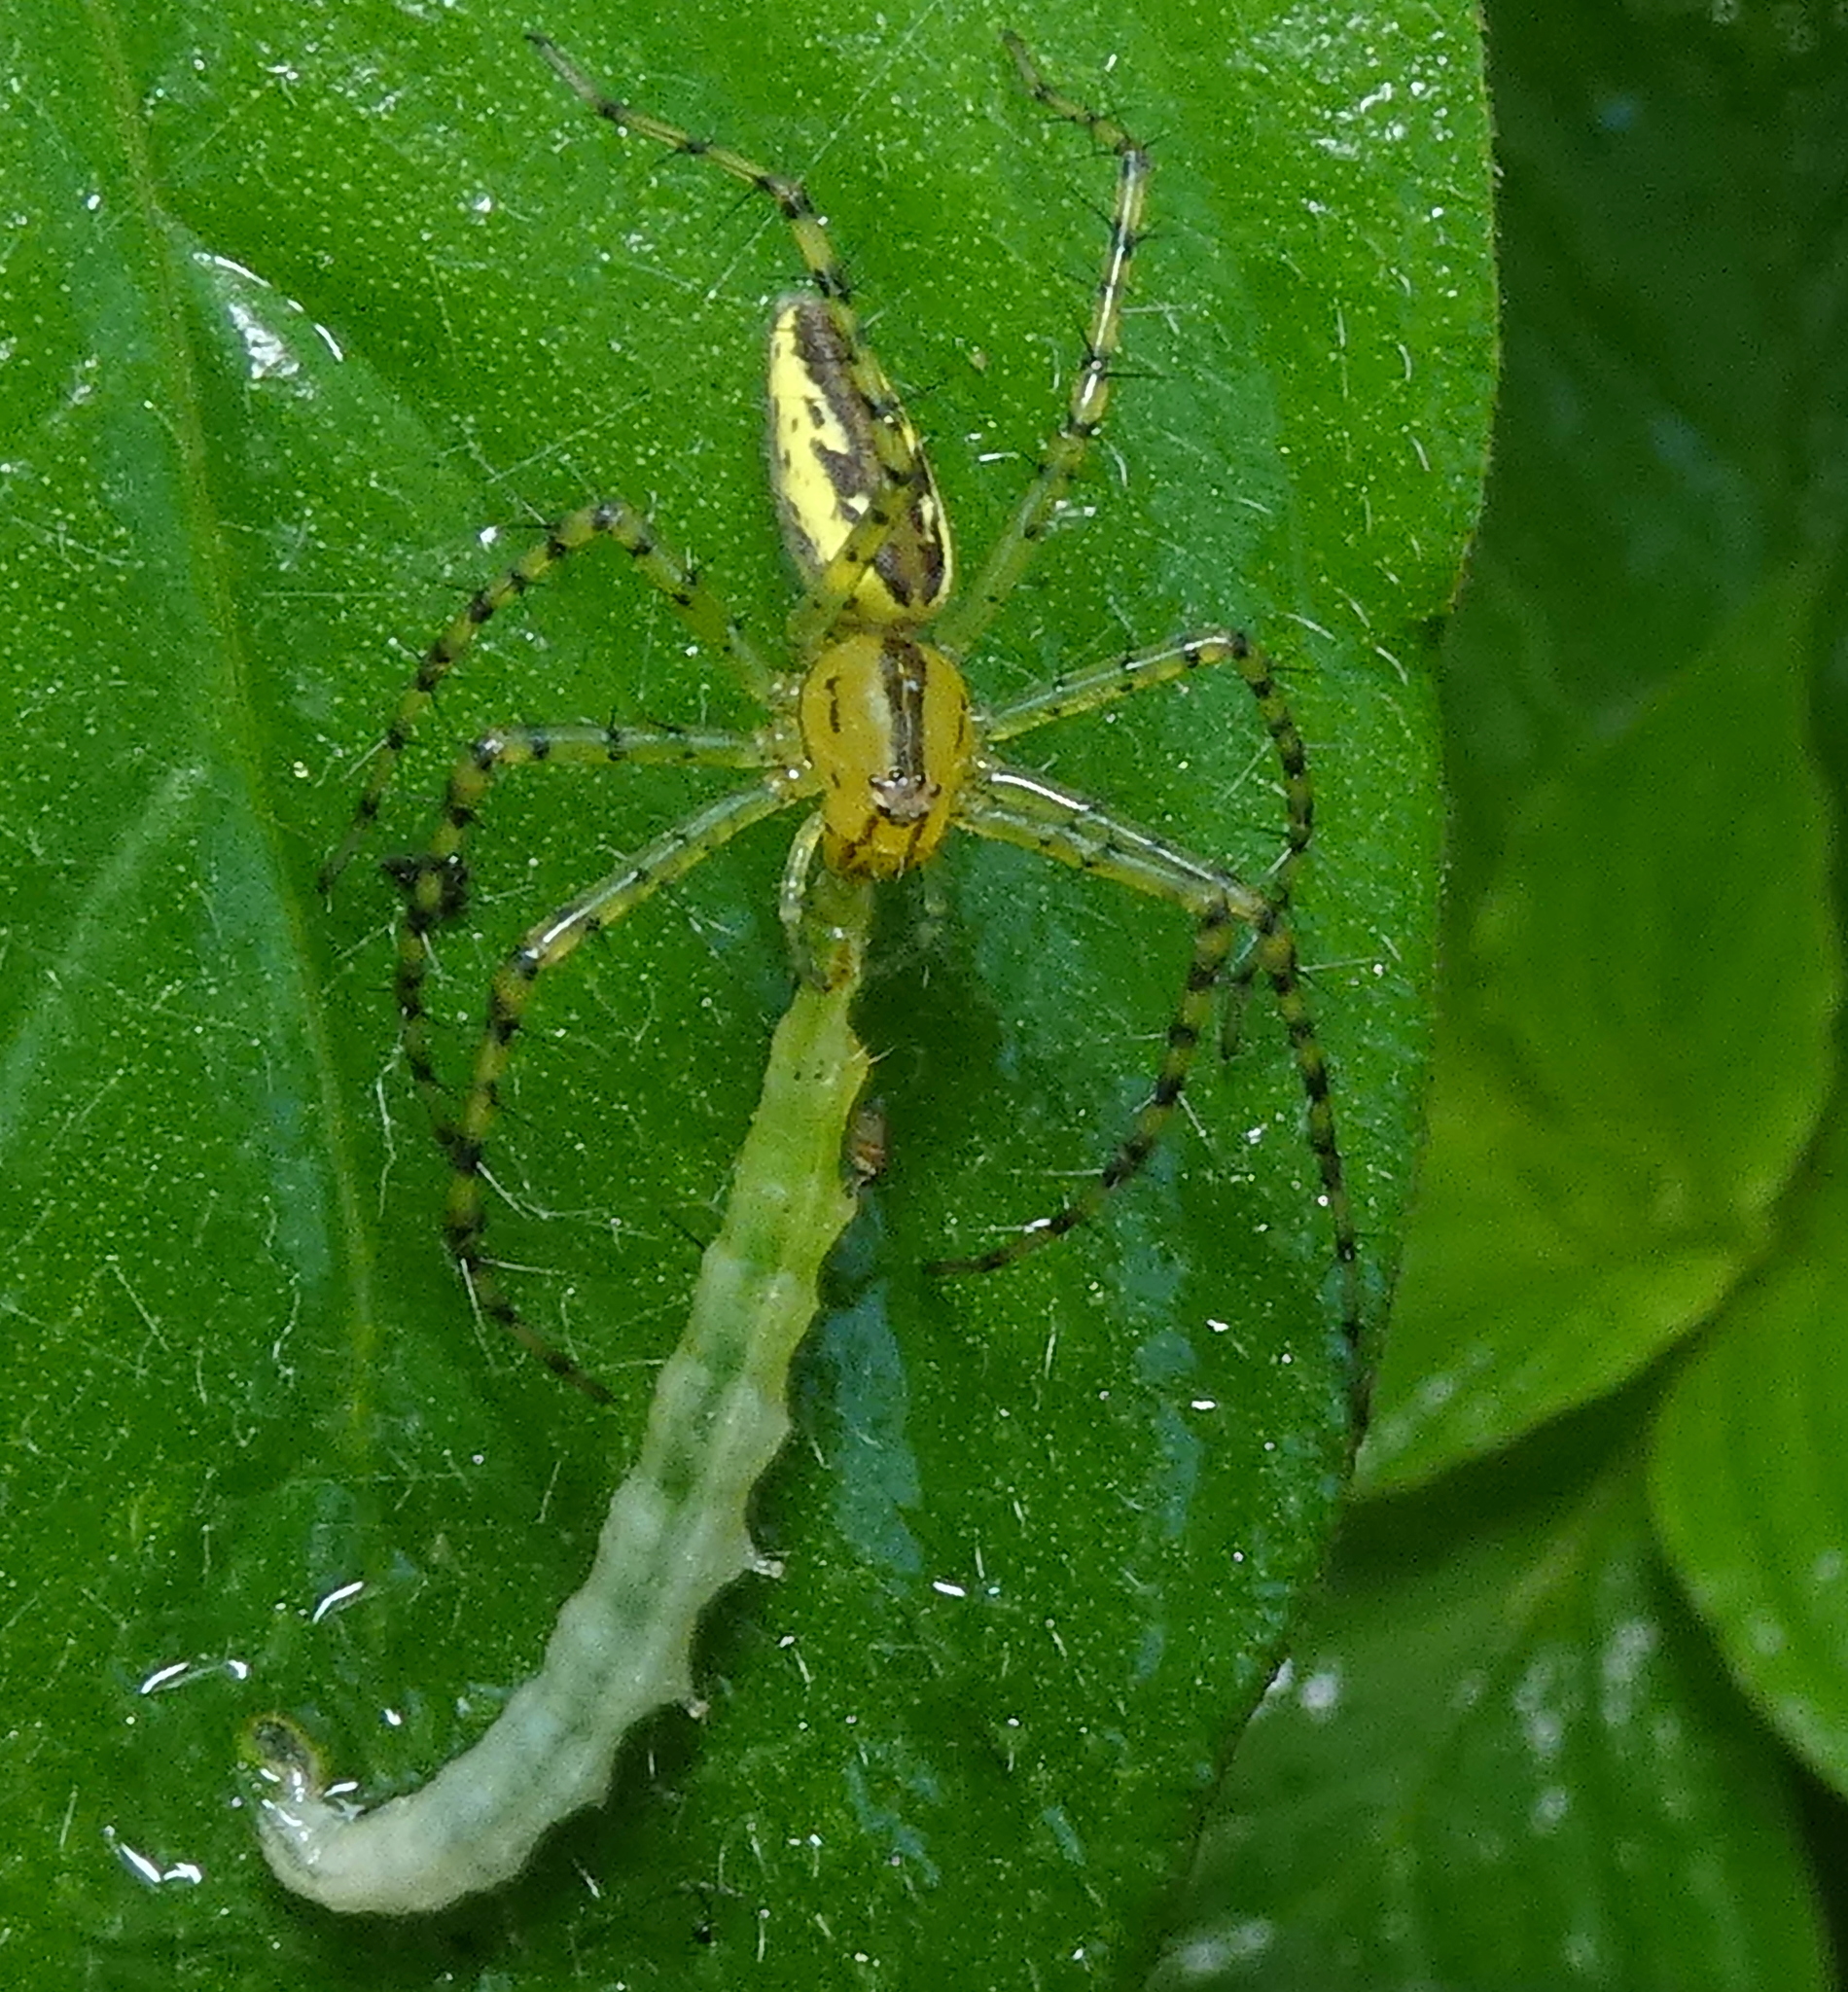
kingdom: Animalia
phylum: Arthropoda
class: Arachnida
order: Araneae
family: Oxyopidae
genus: Peucetia
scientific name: Peucetia rubrolineata
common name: Lynx spiders
